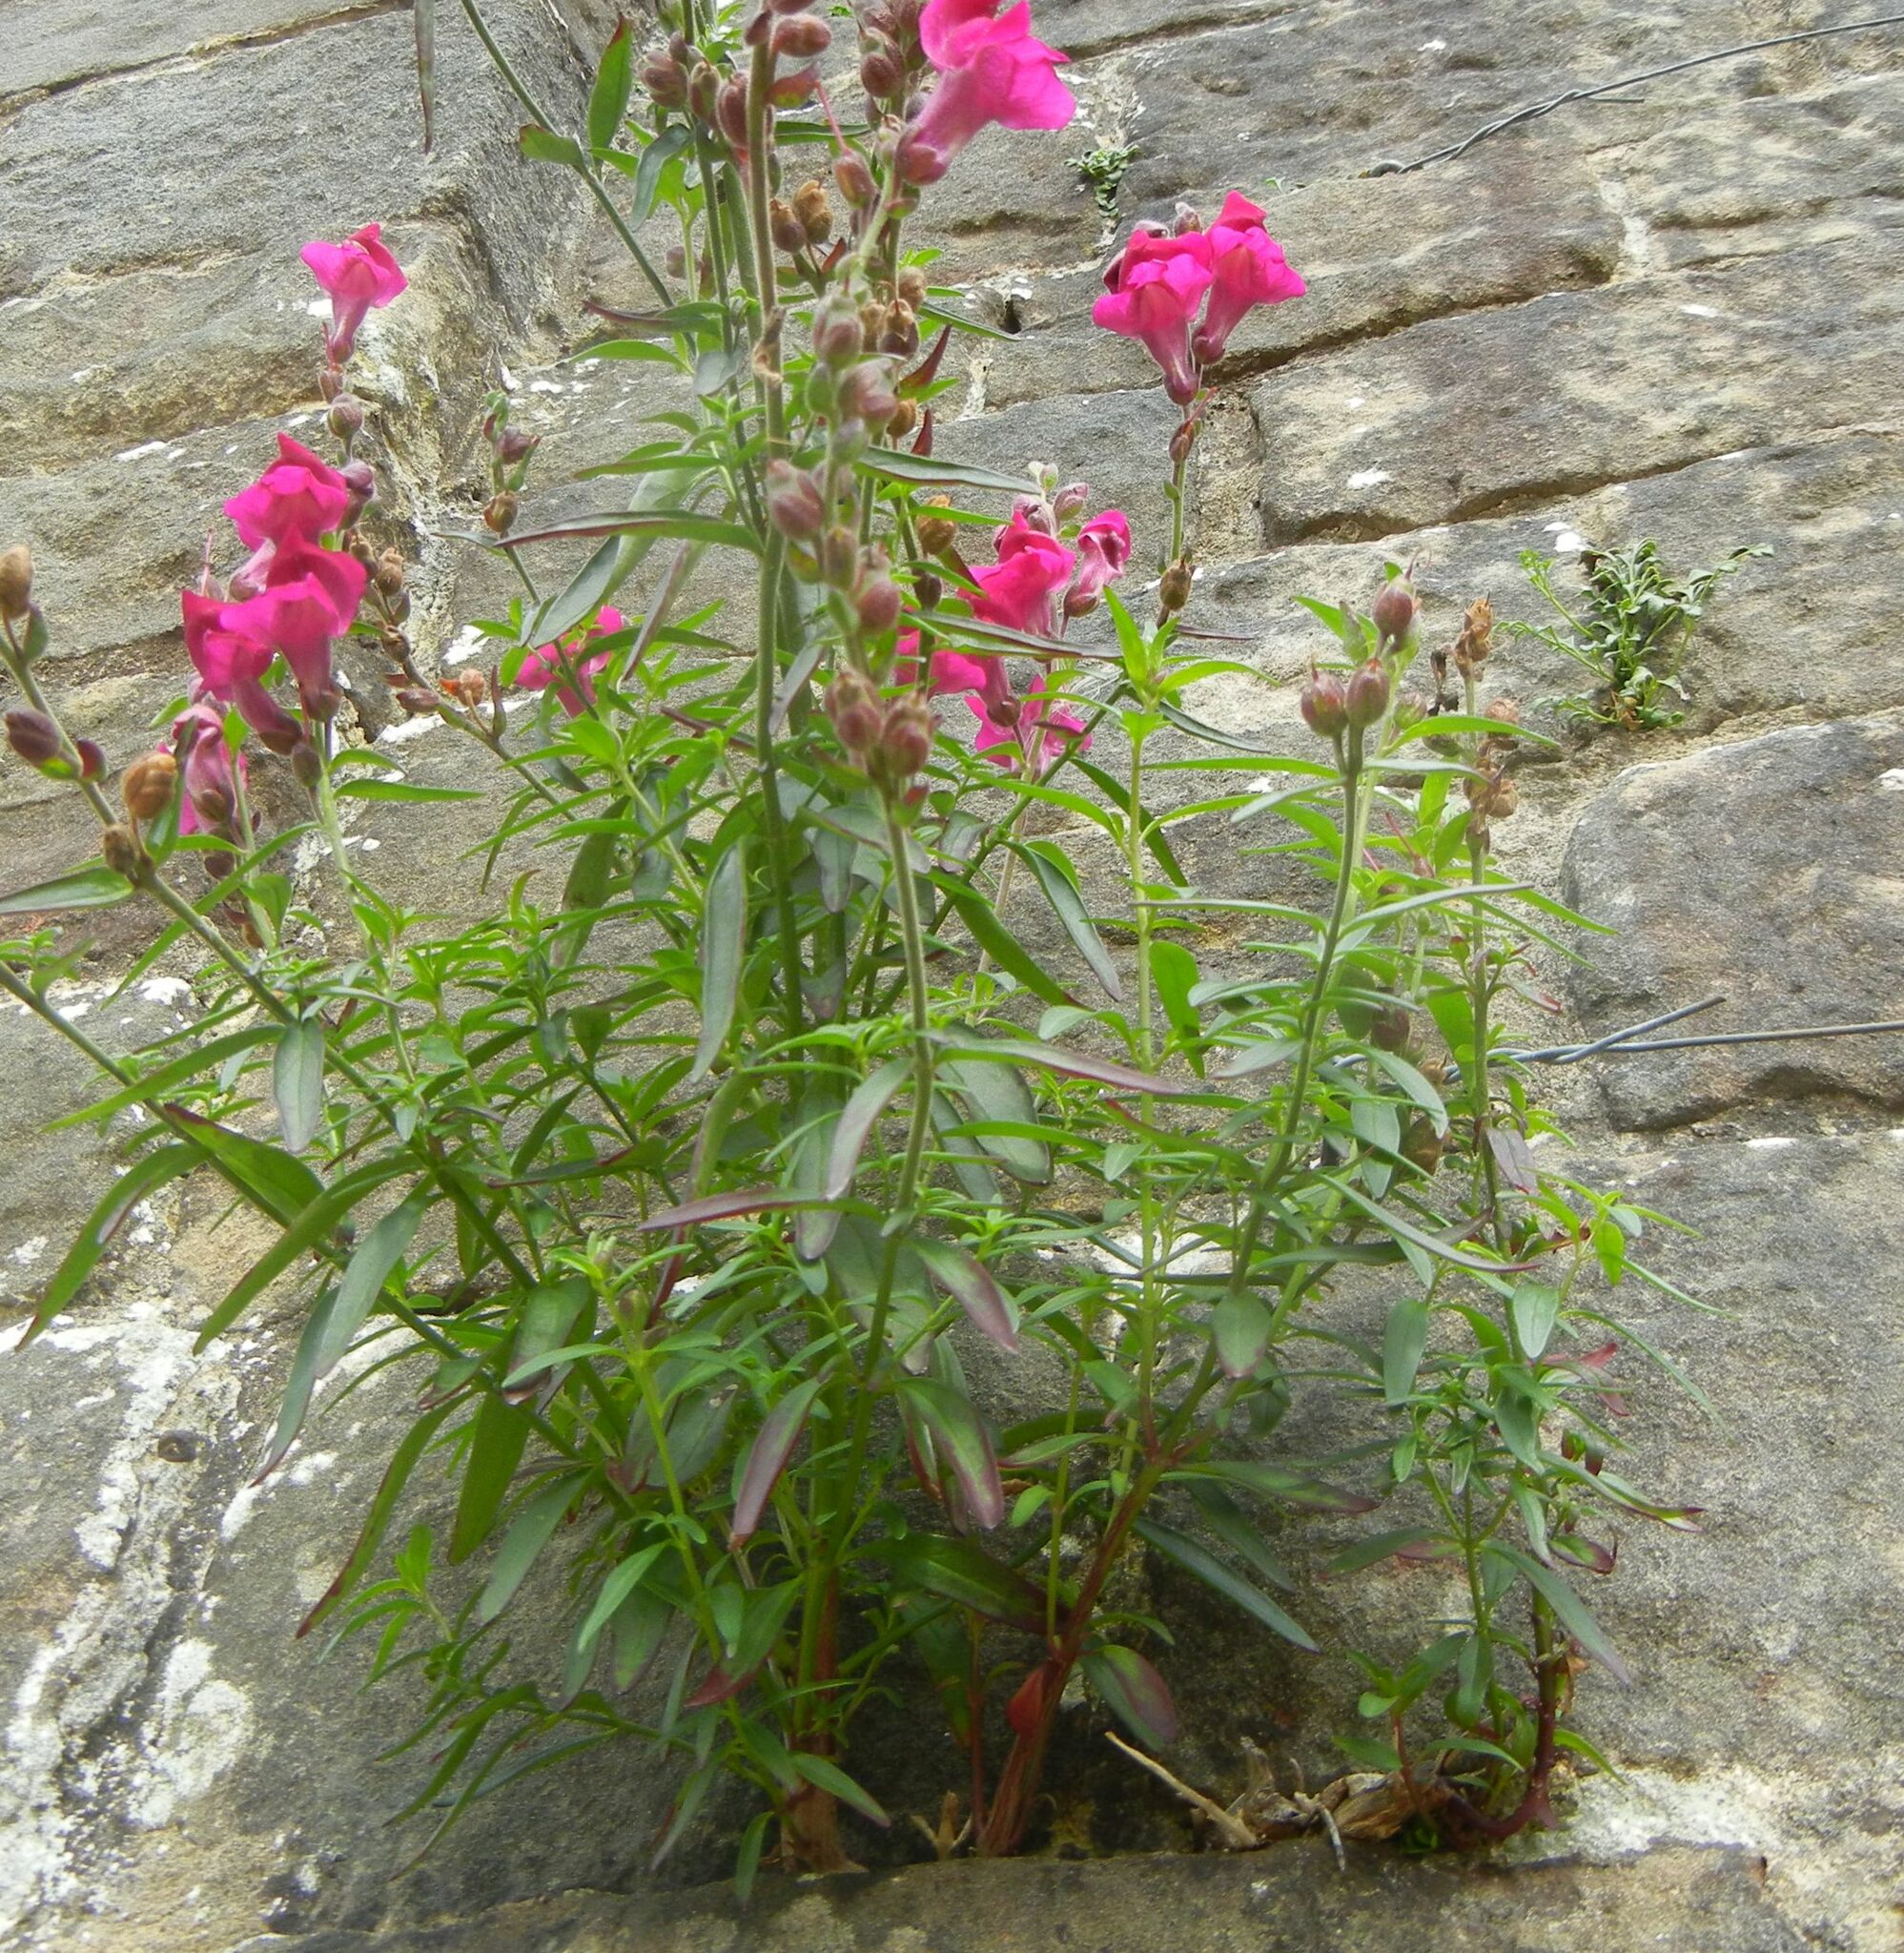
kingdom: Plantae
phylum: Tracheophyta
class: Magnoliopsida
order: Lamiales
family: Plantaginaceae
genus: Antirrhinum
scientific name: Antirrhinum majus
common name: Snapdragon
